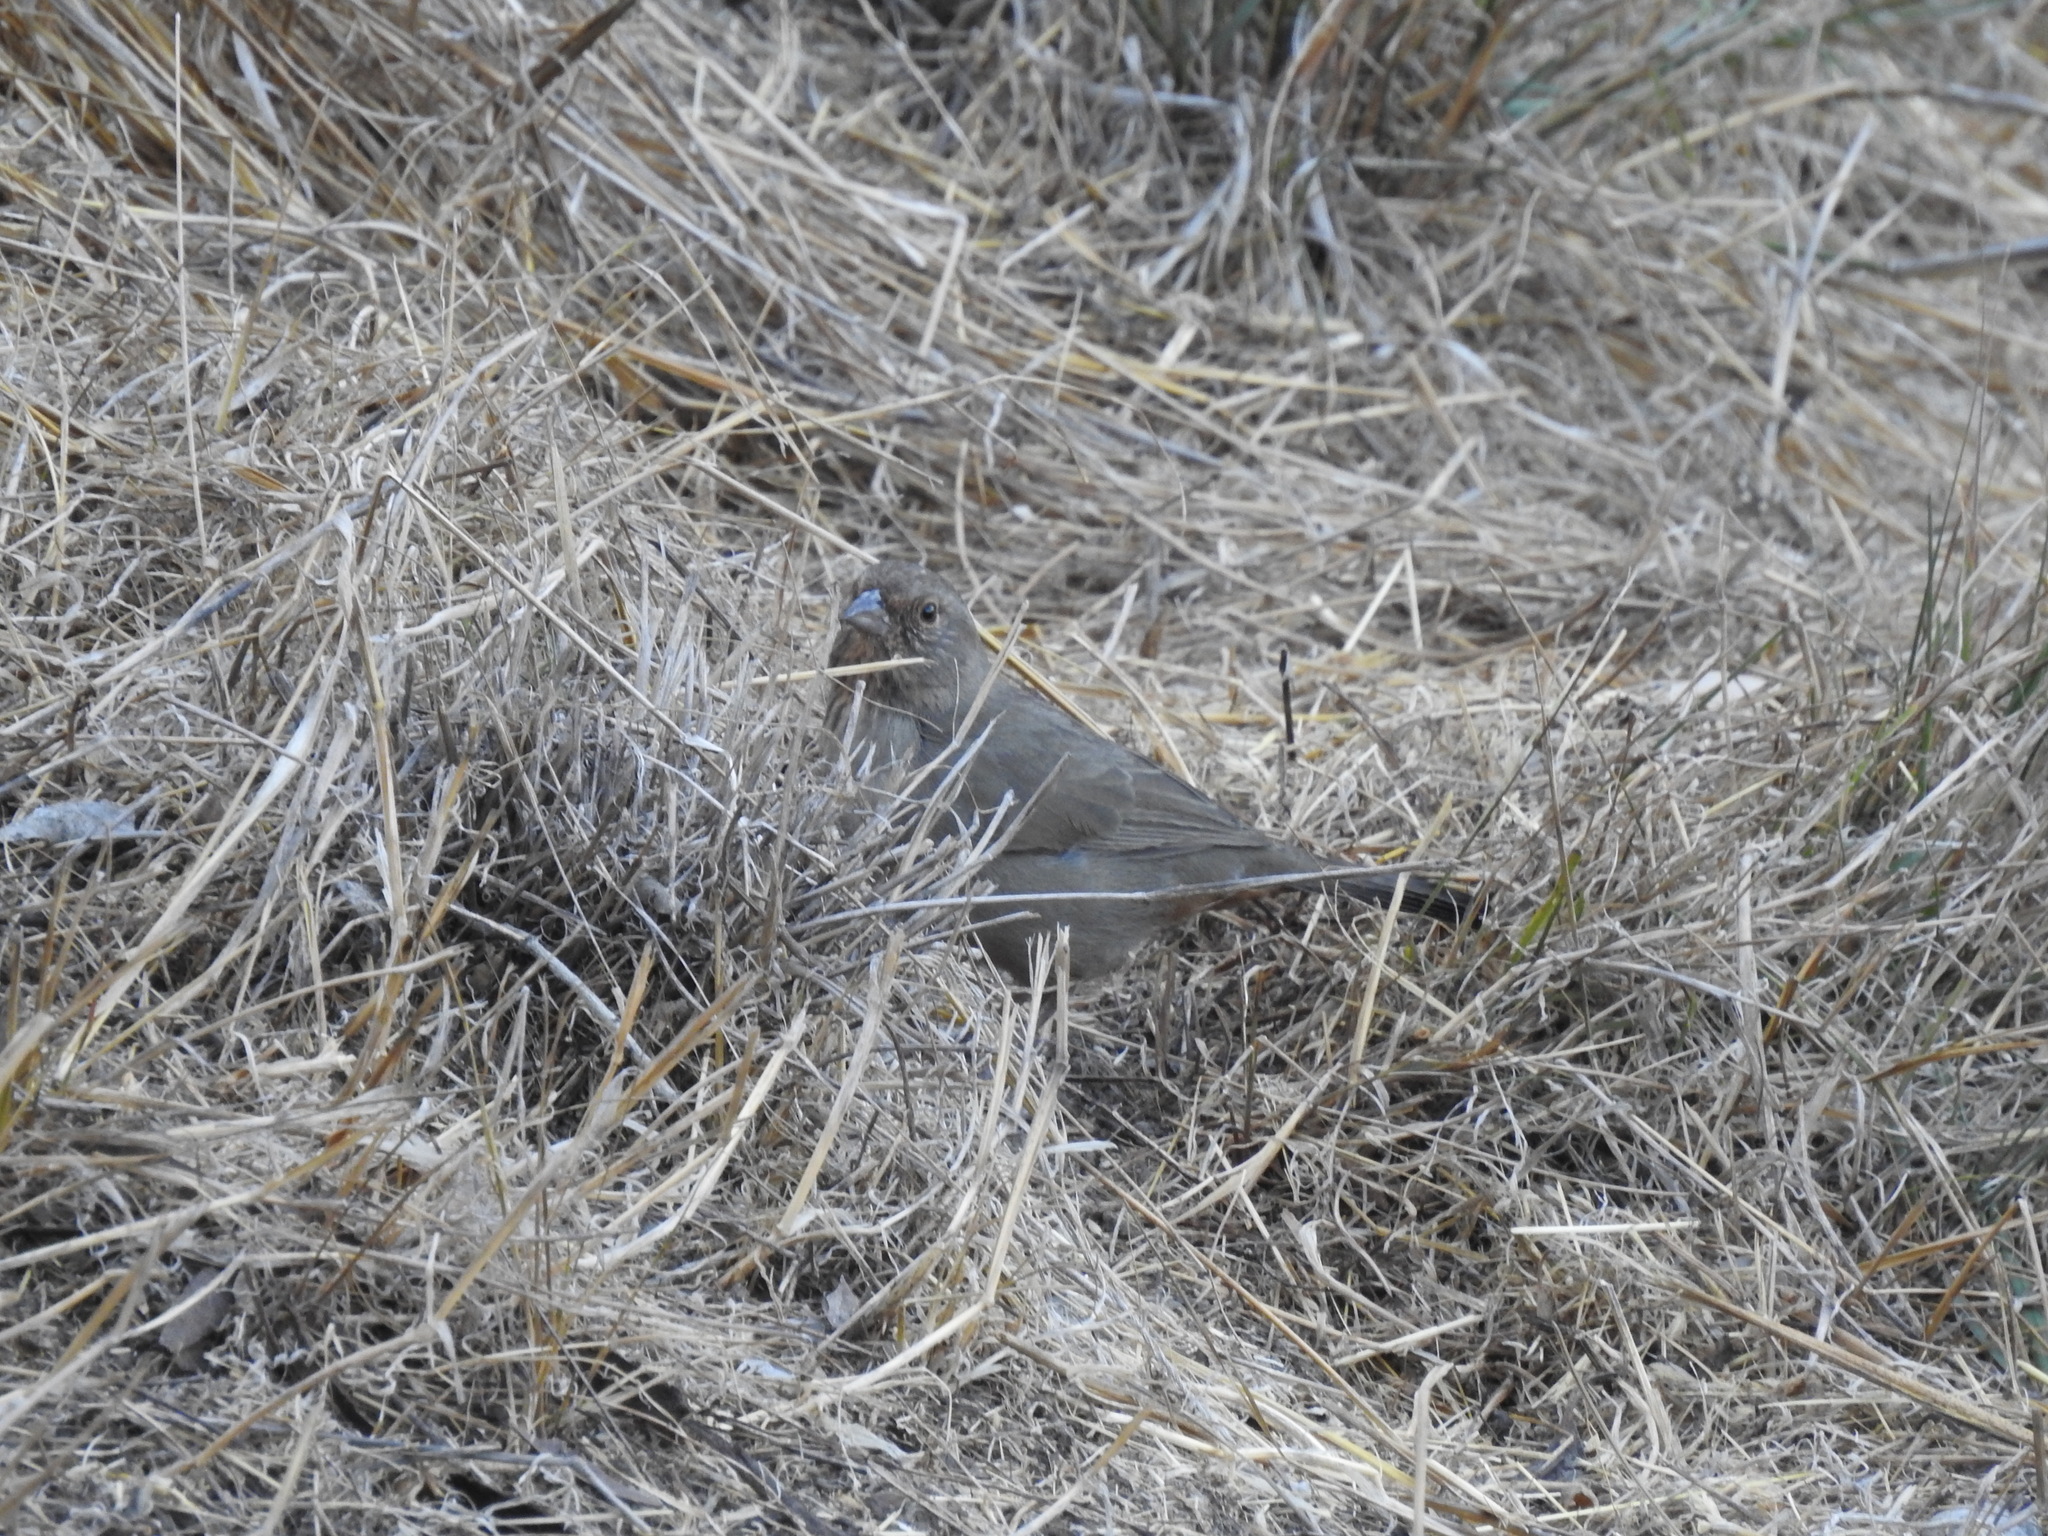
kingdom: Animalia
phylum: Chordata
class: Aves
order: Passeriformes
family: Passerellidae
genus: Melozone
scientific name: Melozone crissalis
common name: California towhee
